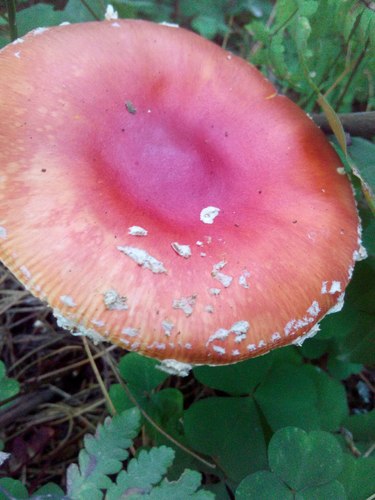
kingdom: Fungi
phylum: Basidiomycota
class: Agaricomycetes
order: Agaricales
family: Amanitaceae
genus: Amanita
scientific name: Amanita muscaria
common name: Fly agaric
